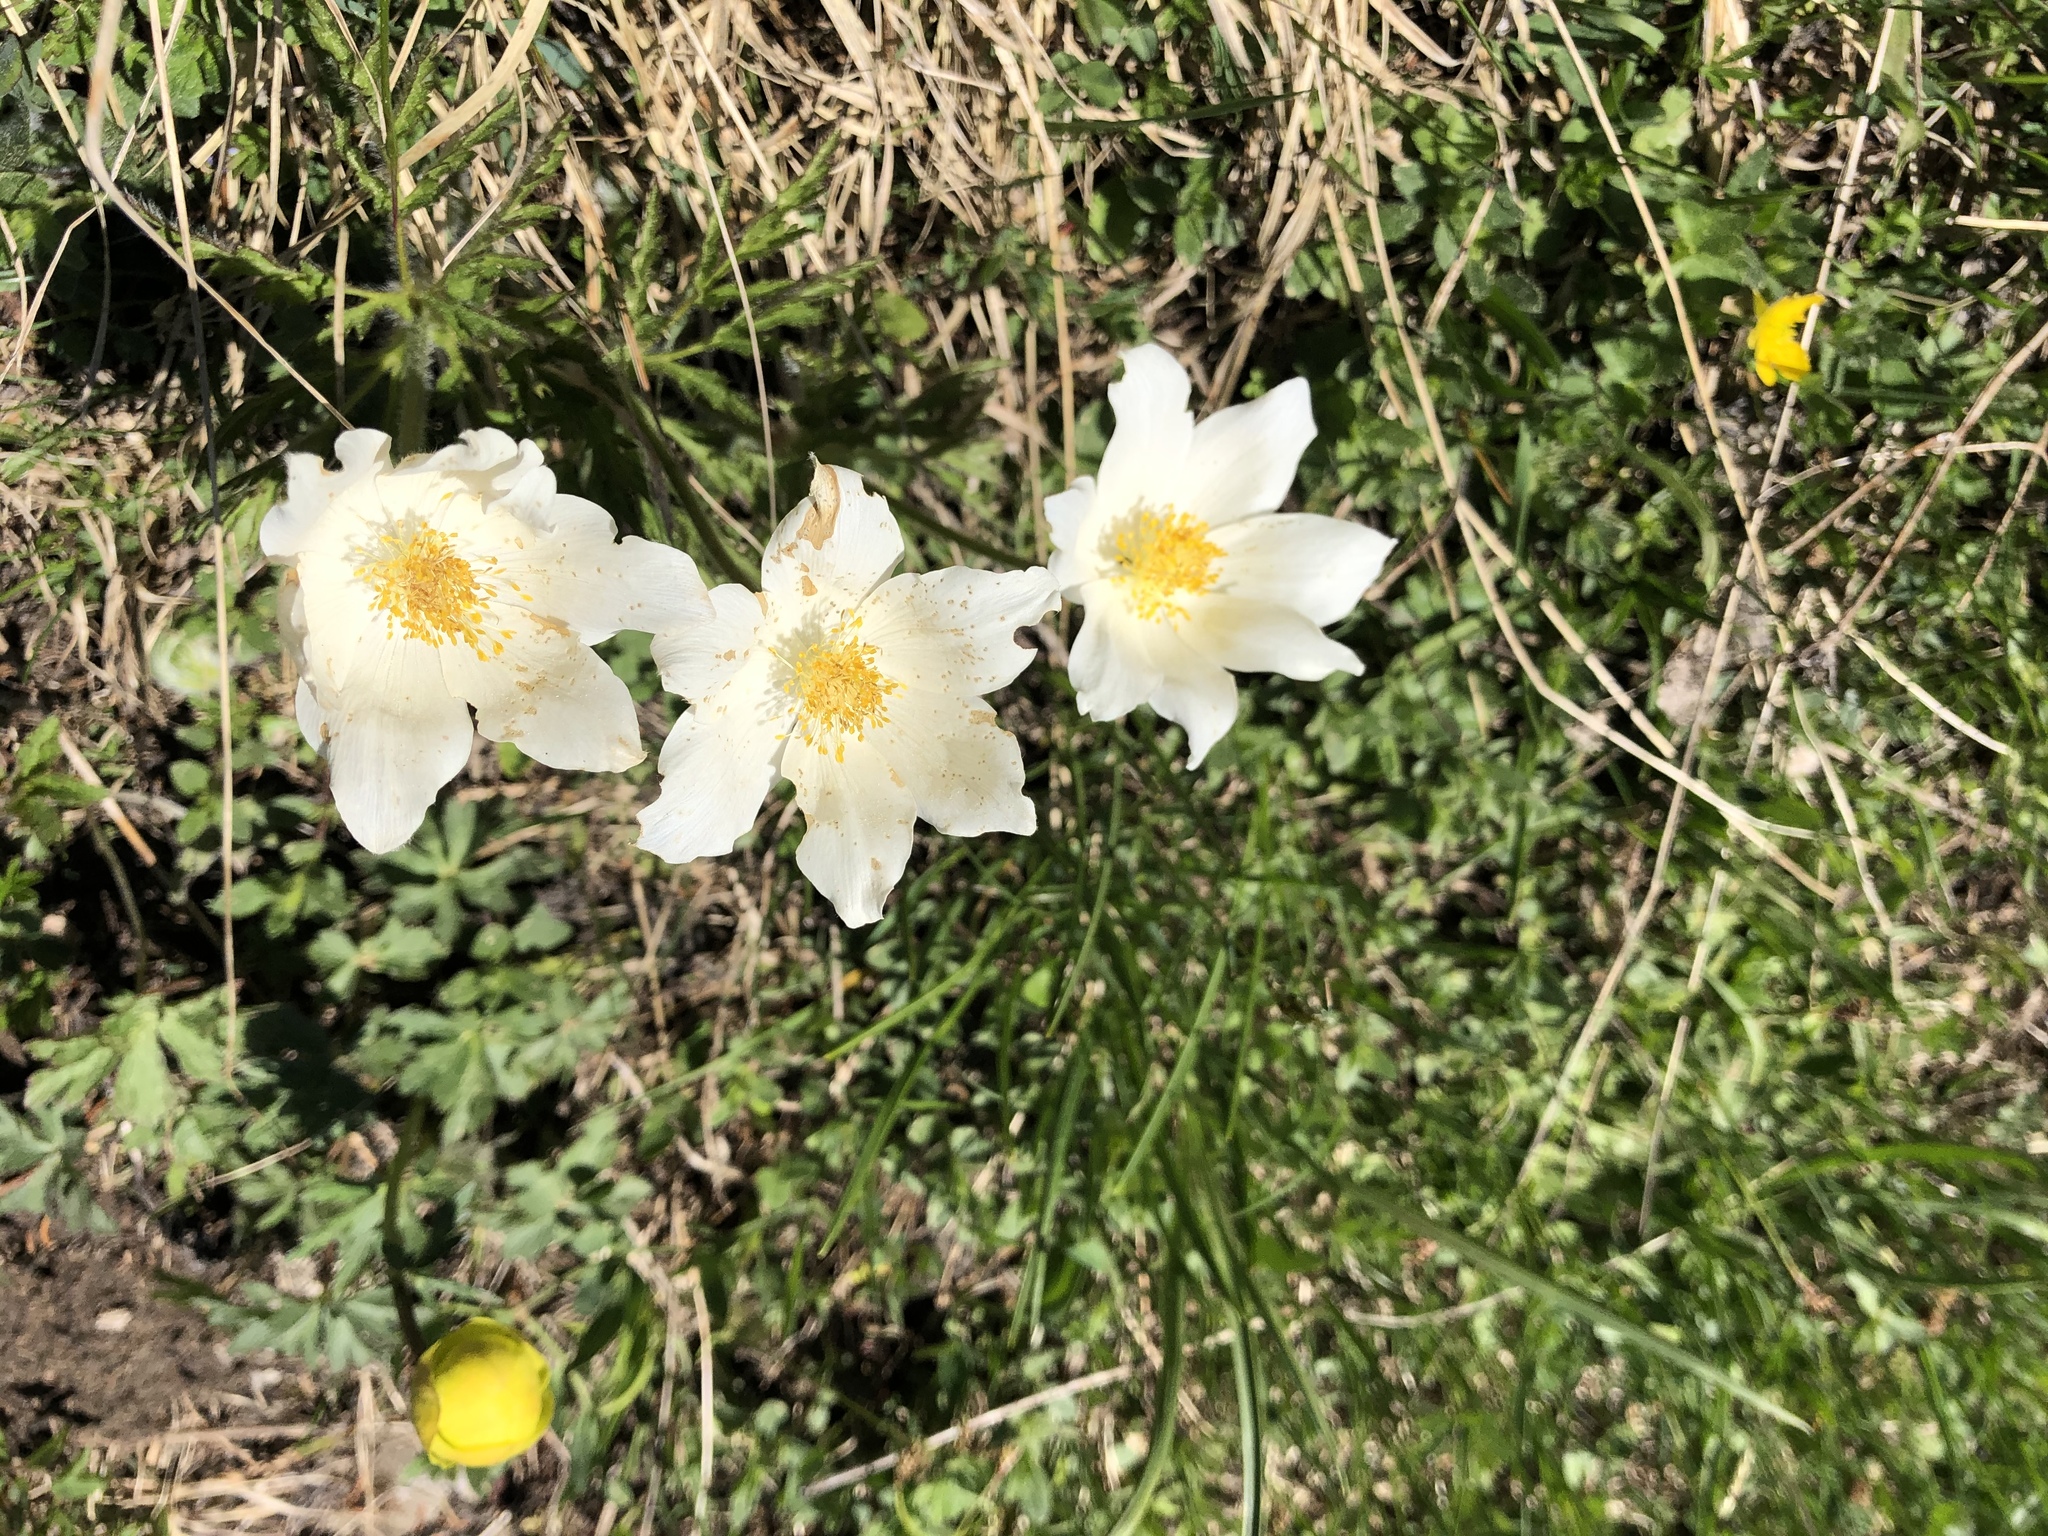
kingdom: Plantae
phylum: Tracheophyta
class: Magnoliopsida
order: Ranunculales
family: Ranunculaceae
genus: Pulsatilla
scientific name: Pulsatilla alpina
